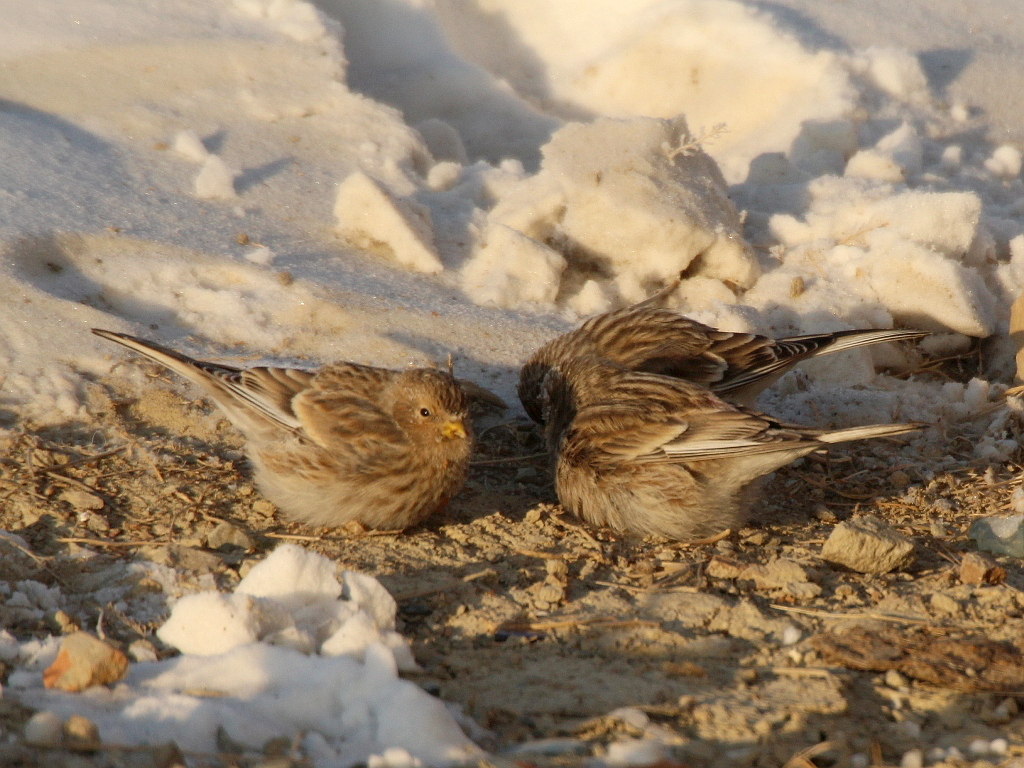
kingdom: Animalia
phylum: Chordata
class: Aves
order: Passeriformes
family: Fringillidae
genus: Linaria
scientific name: Linaria flavirostris
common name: Twite
